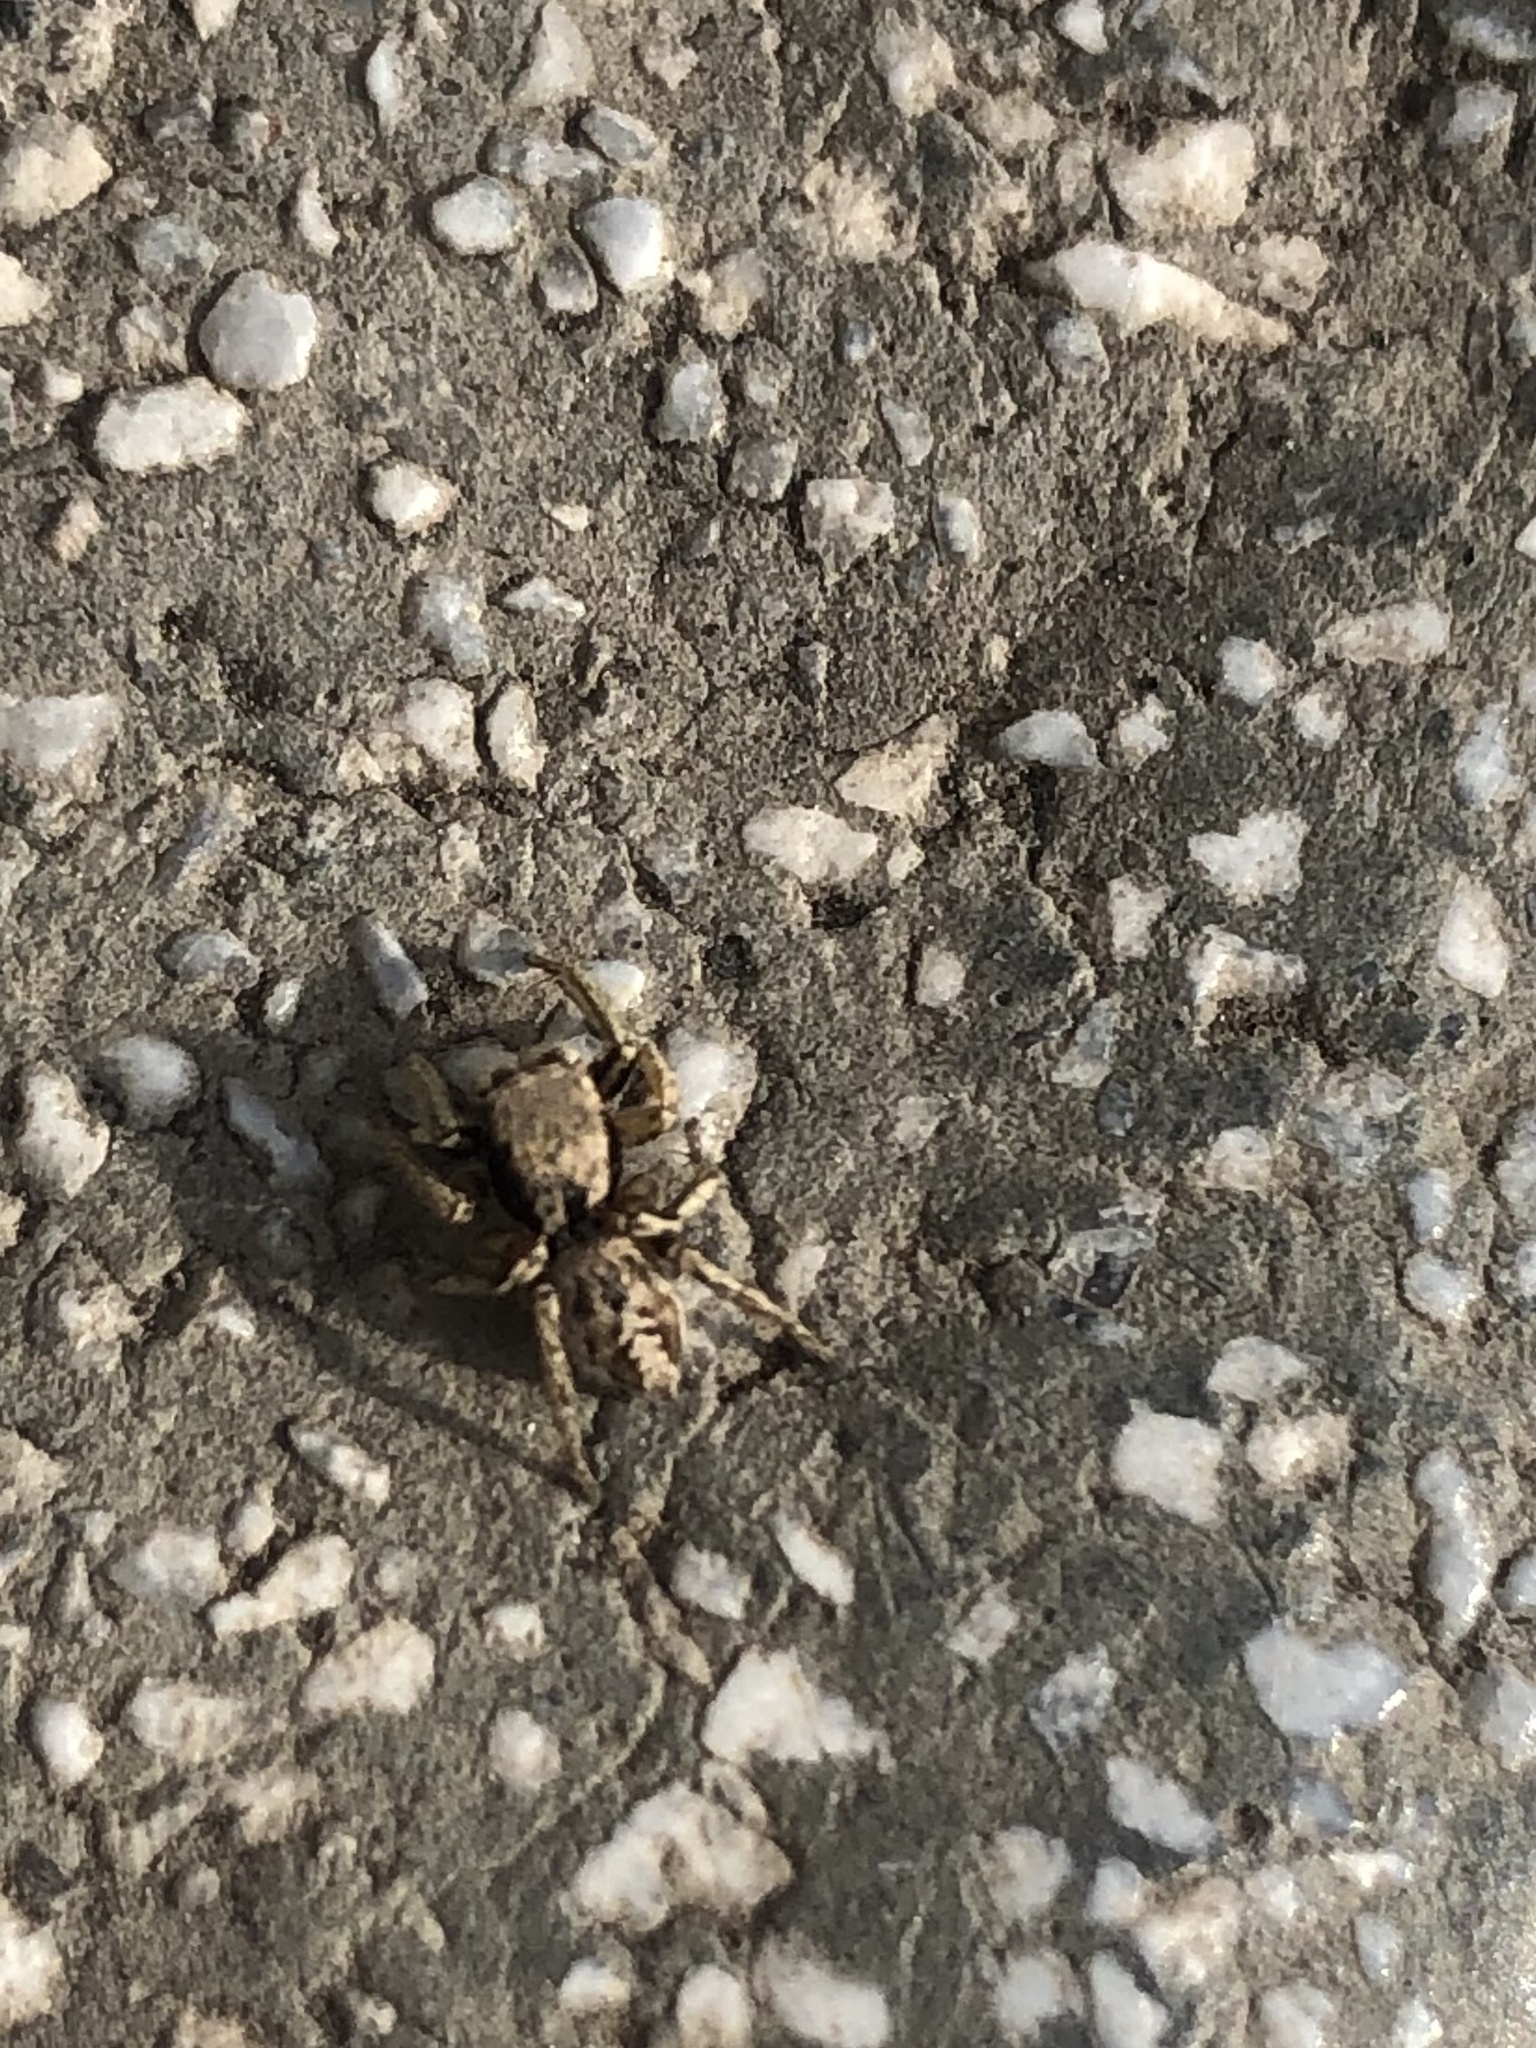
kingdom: Animalia
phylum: Arthropoda
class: Arachnida
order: Araneae
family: Salticidae
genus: Habronattus
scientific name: Habronattus mexicanus
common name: Jumping spiders
